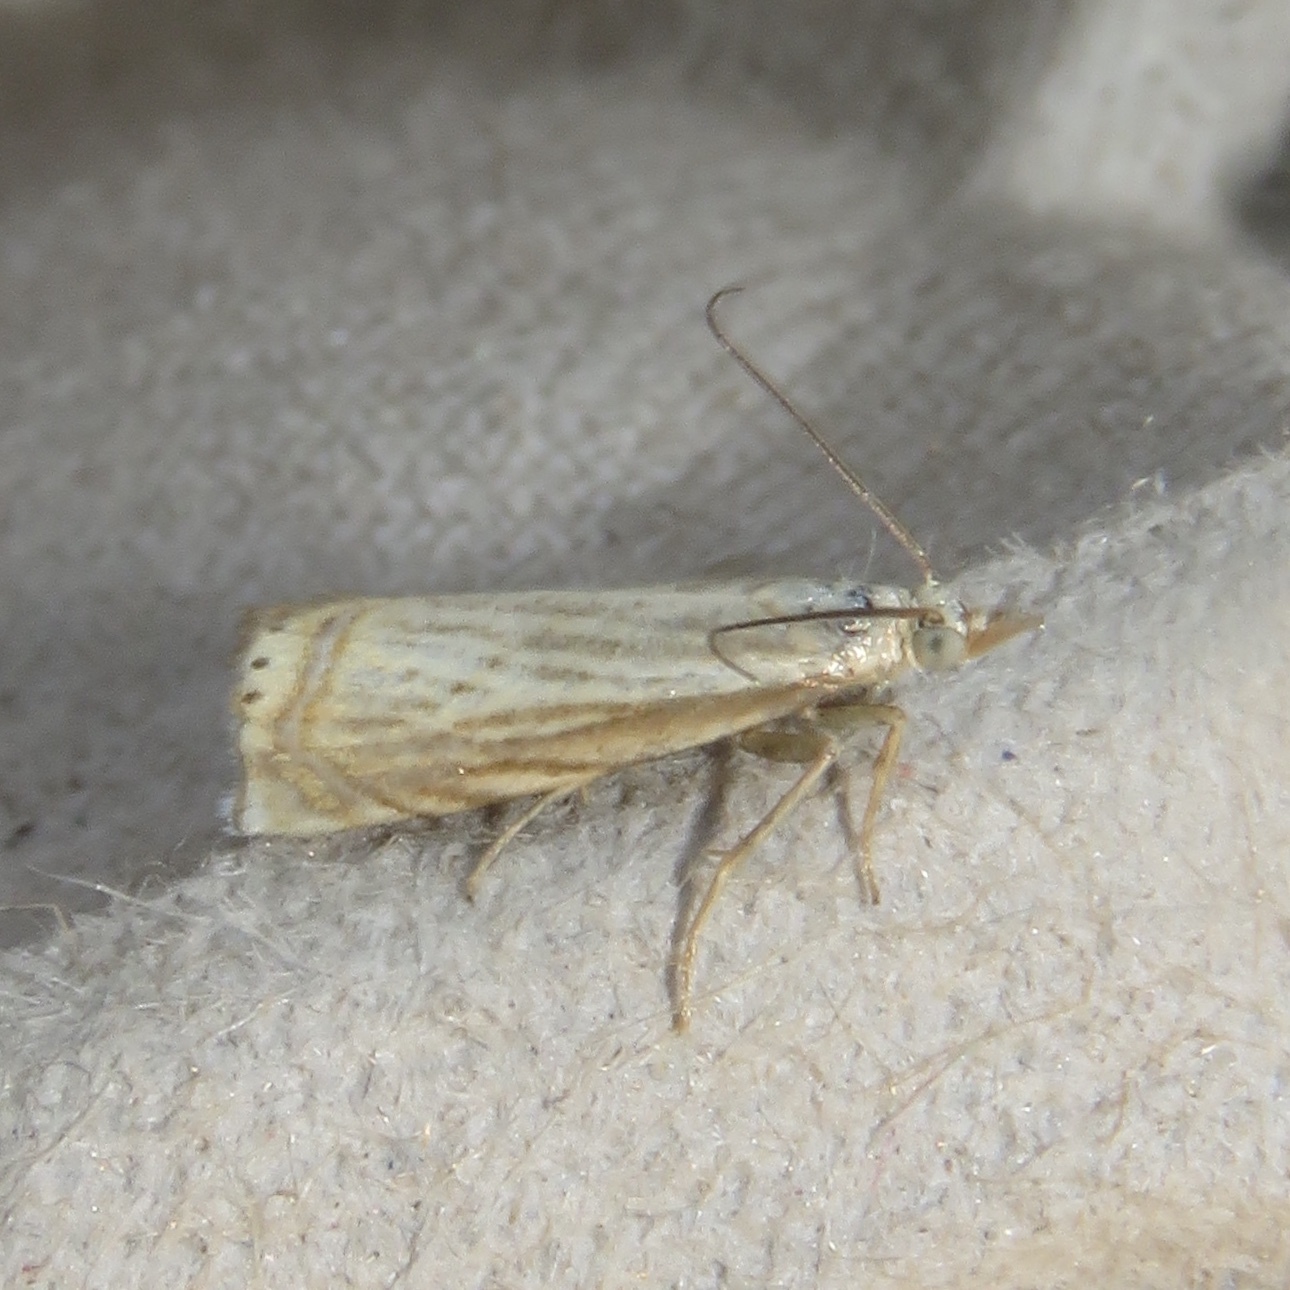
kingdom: Animalia
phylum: Arthropoda
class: Insecta
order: Lepidoptera
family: Crambidae
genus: Chrysoteuchia
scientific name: Chrysoteuchia topiarius
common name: Topiary grass-veneer
